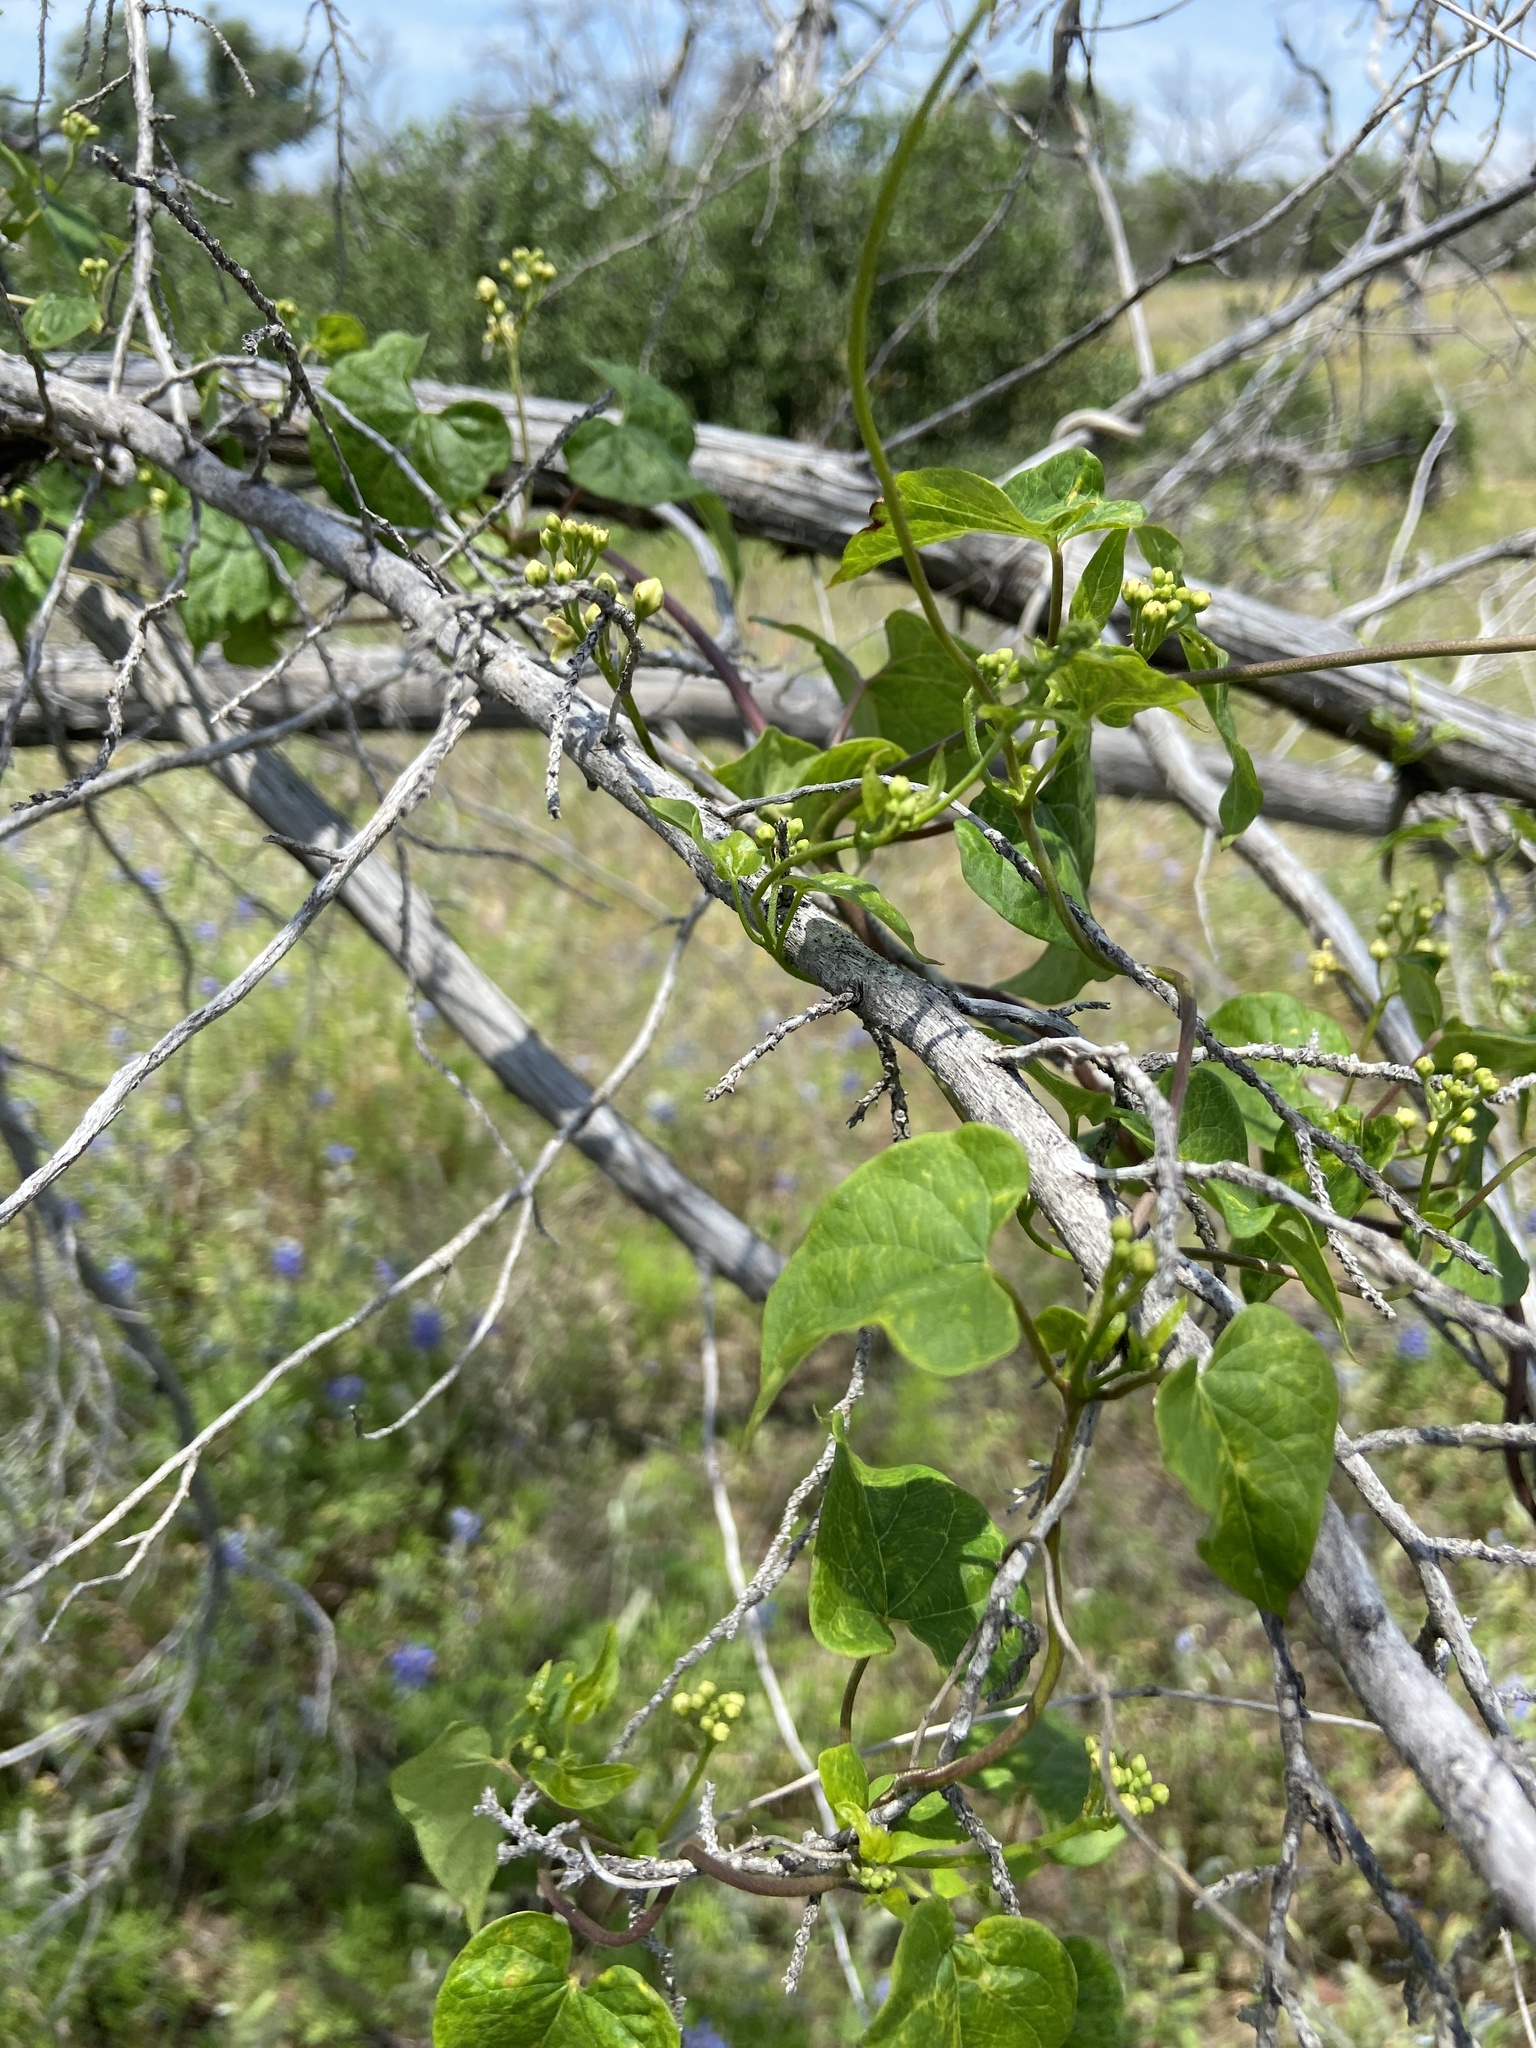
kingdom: Plantae
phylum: Tracheophyta
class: Magnoliopsida
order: Gentianales
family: Apocynaceae
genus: Cynanchum
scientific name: Cynanchum racemosum
